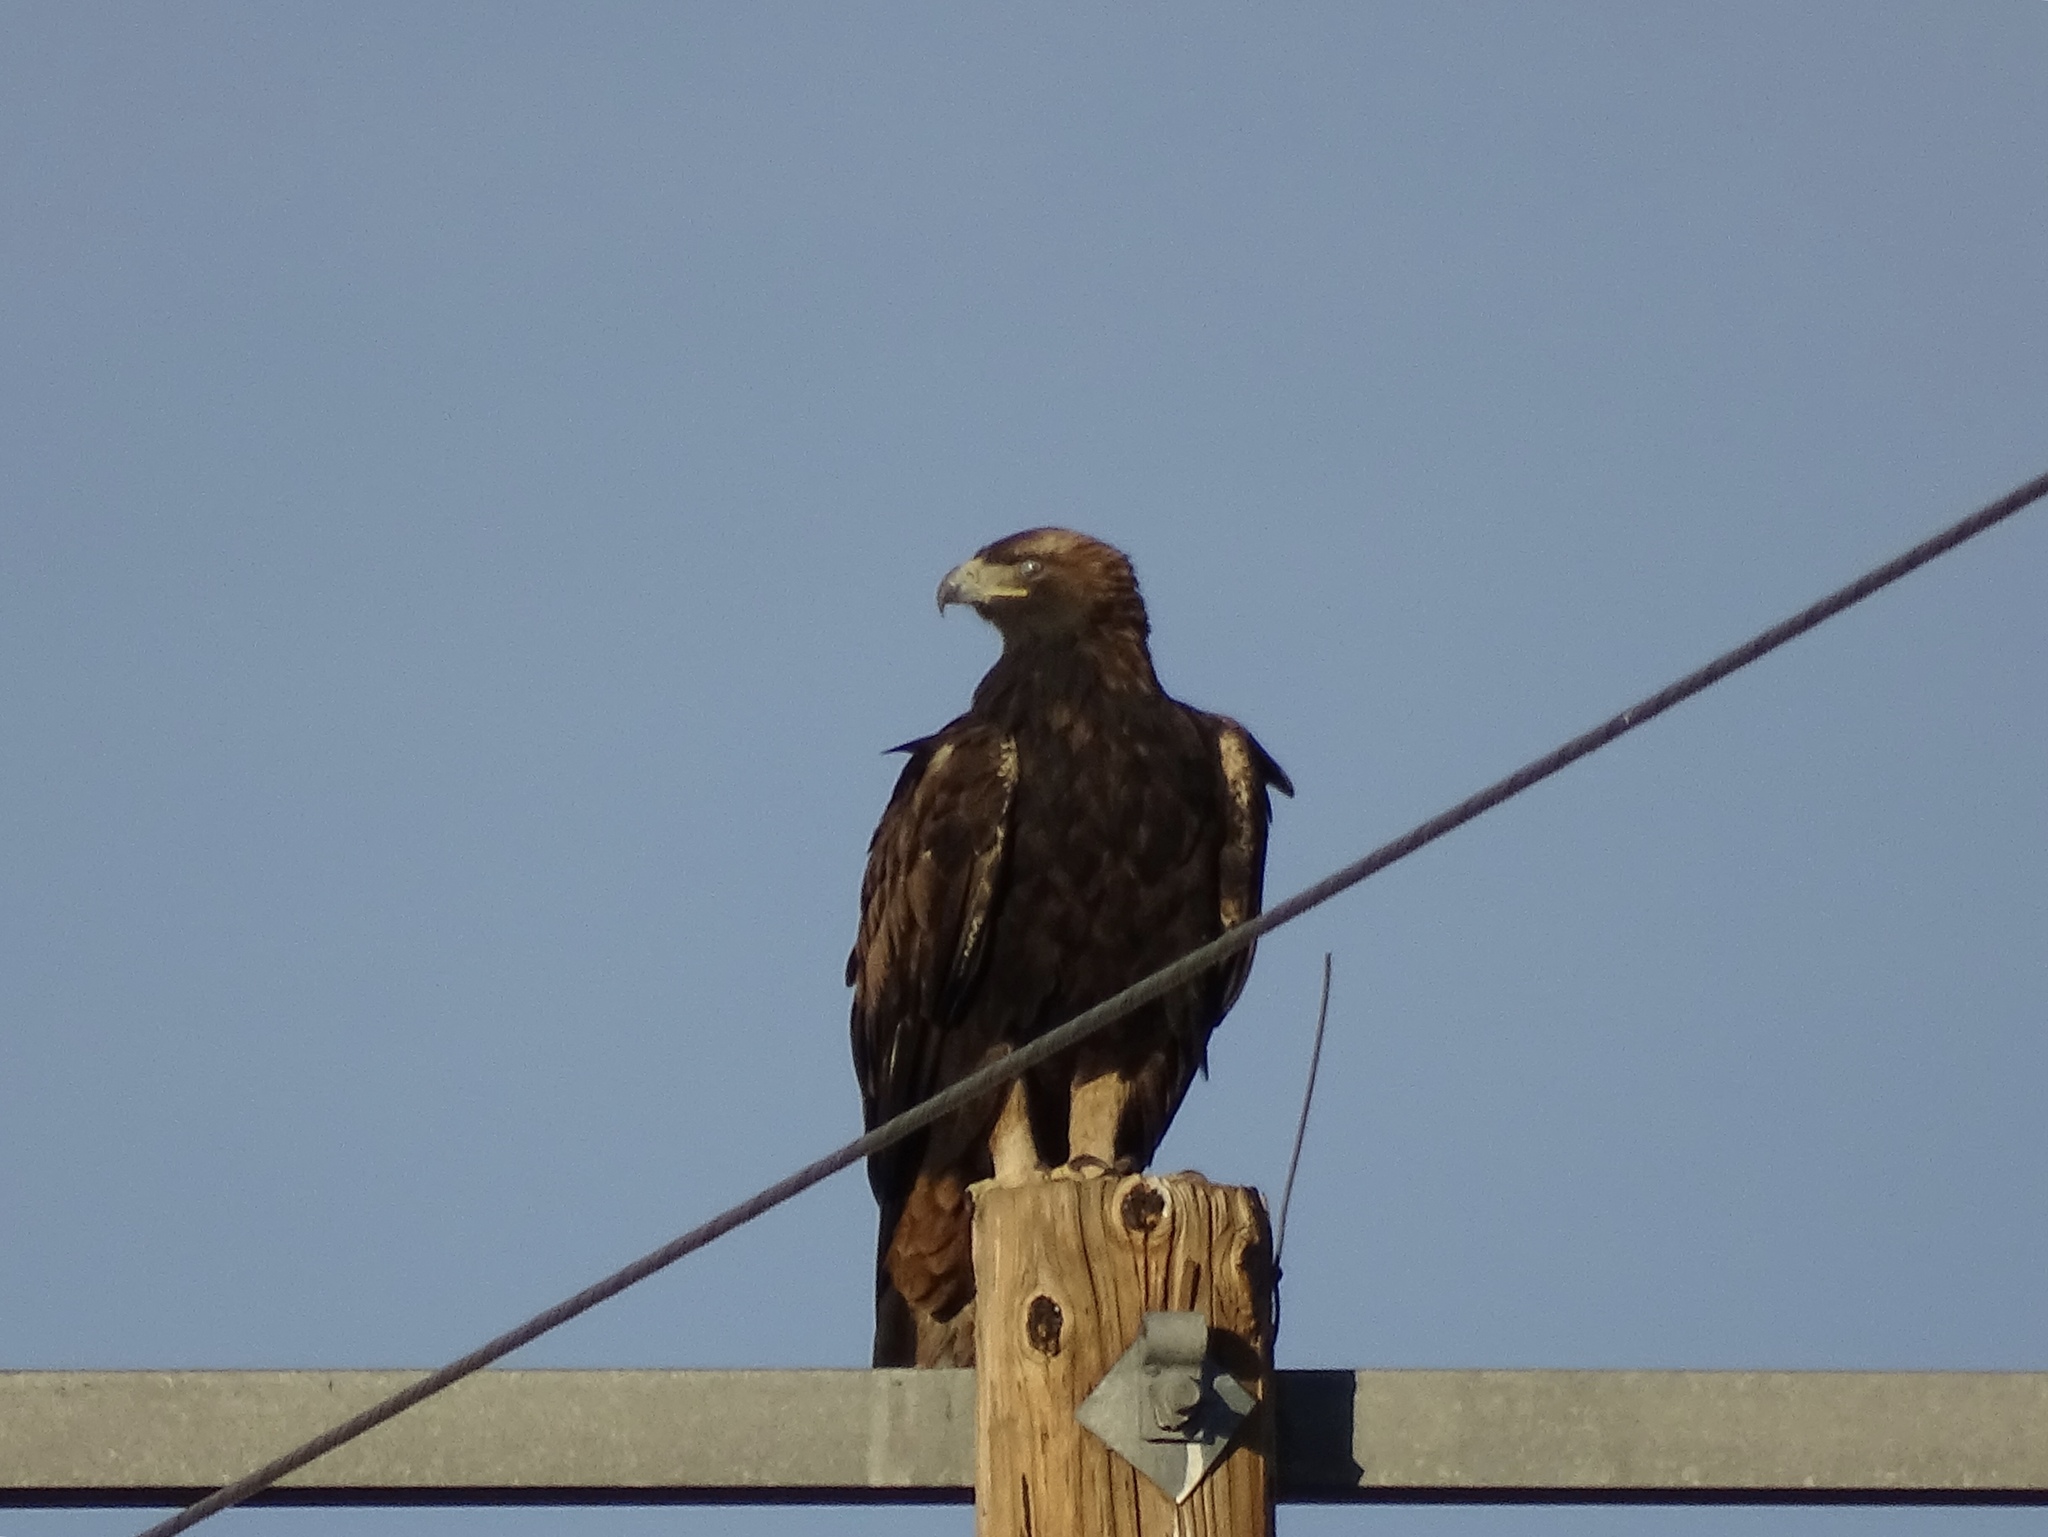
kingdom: Animalia
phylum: Chordata
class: Aves
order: Accipitriformes
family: Accipitridae
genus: Aquila
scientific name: Aquila chrysaetos
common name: Golden eagle
